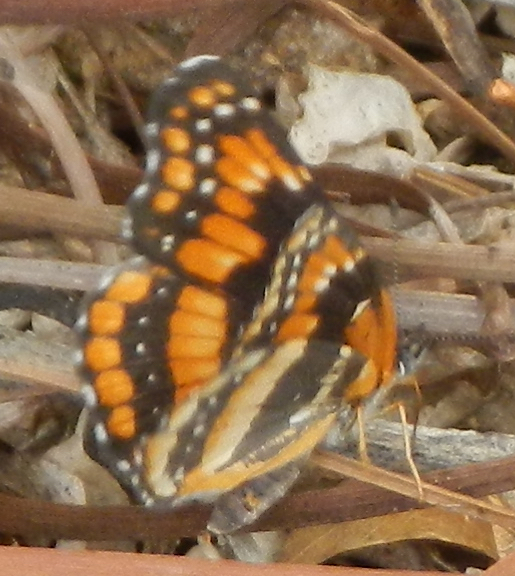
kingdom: Animalia
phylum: Arthropoda
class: Insecta
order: Lepidoptera
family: Nymphalidae
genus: Chlosyne
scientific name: Chlosyne californica
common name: California patch
